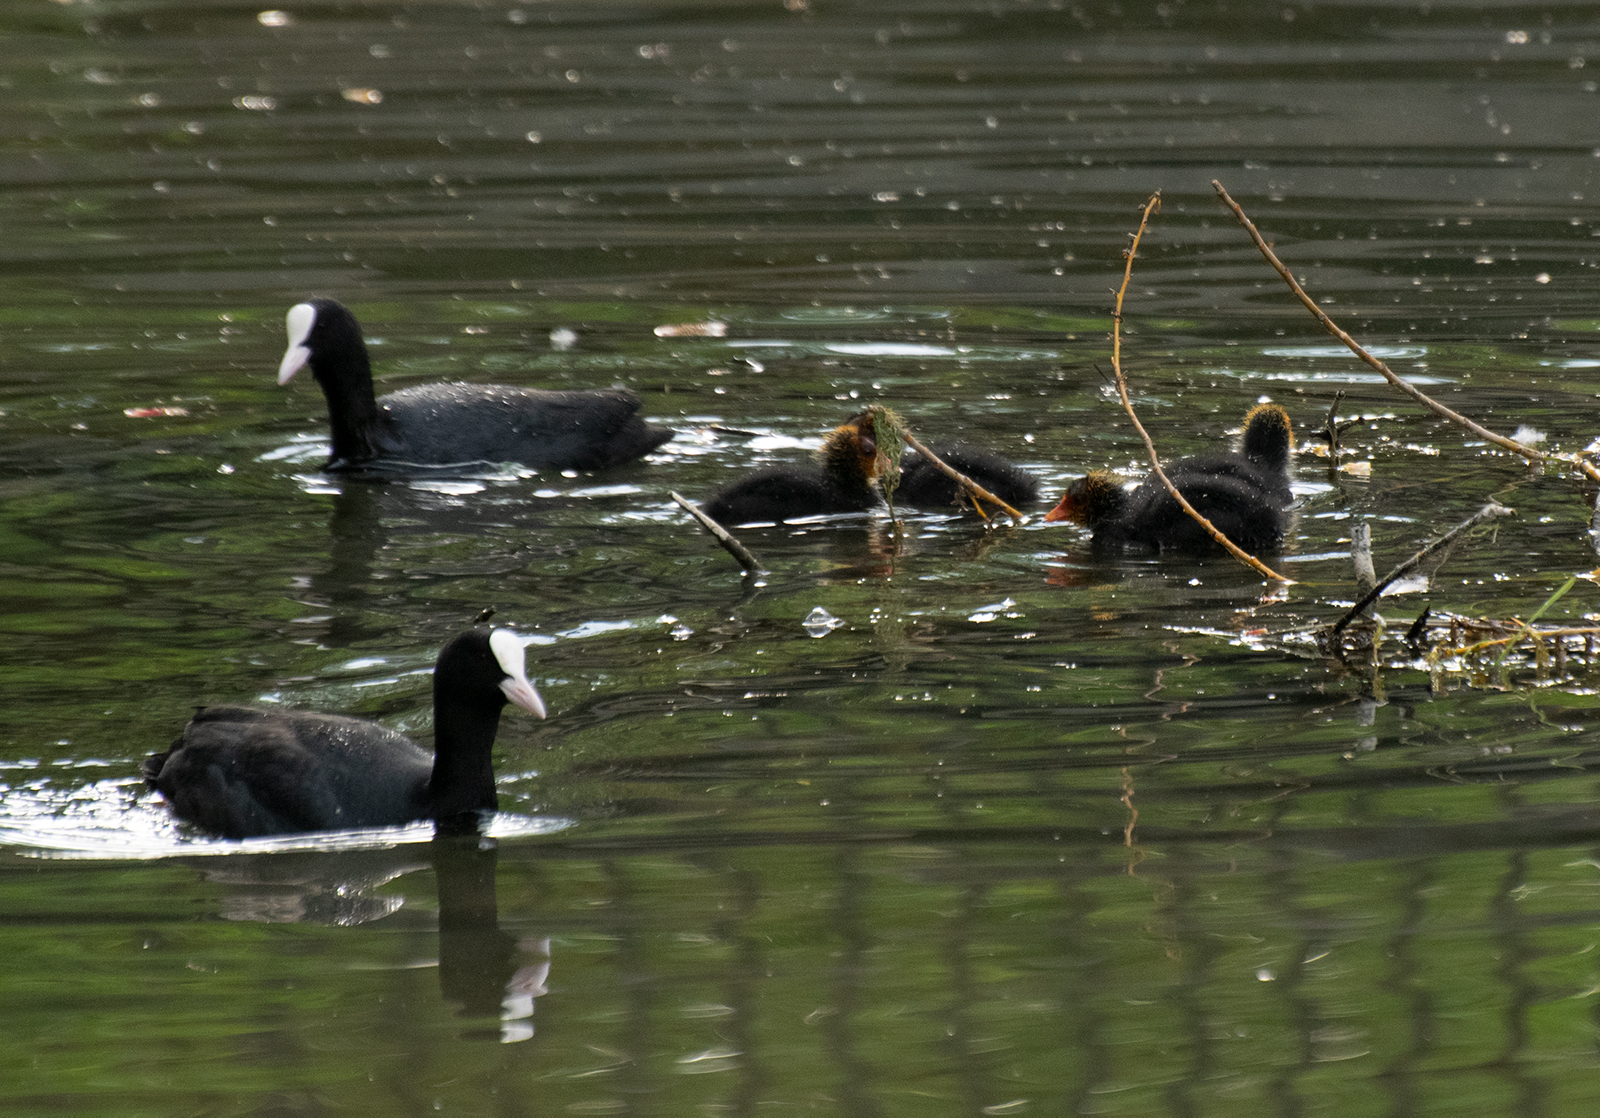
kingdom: Animalia
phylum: Chordata
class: Aves
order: Gruiformes
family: Rallidae
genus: Fulica
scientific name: Fulica atra
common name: Eurasian coot
